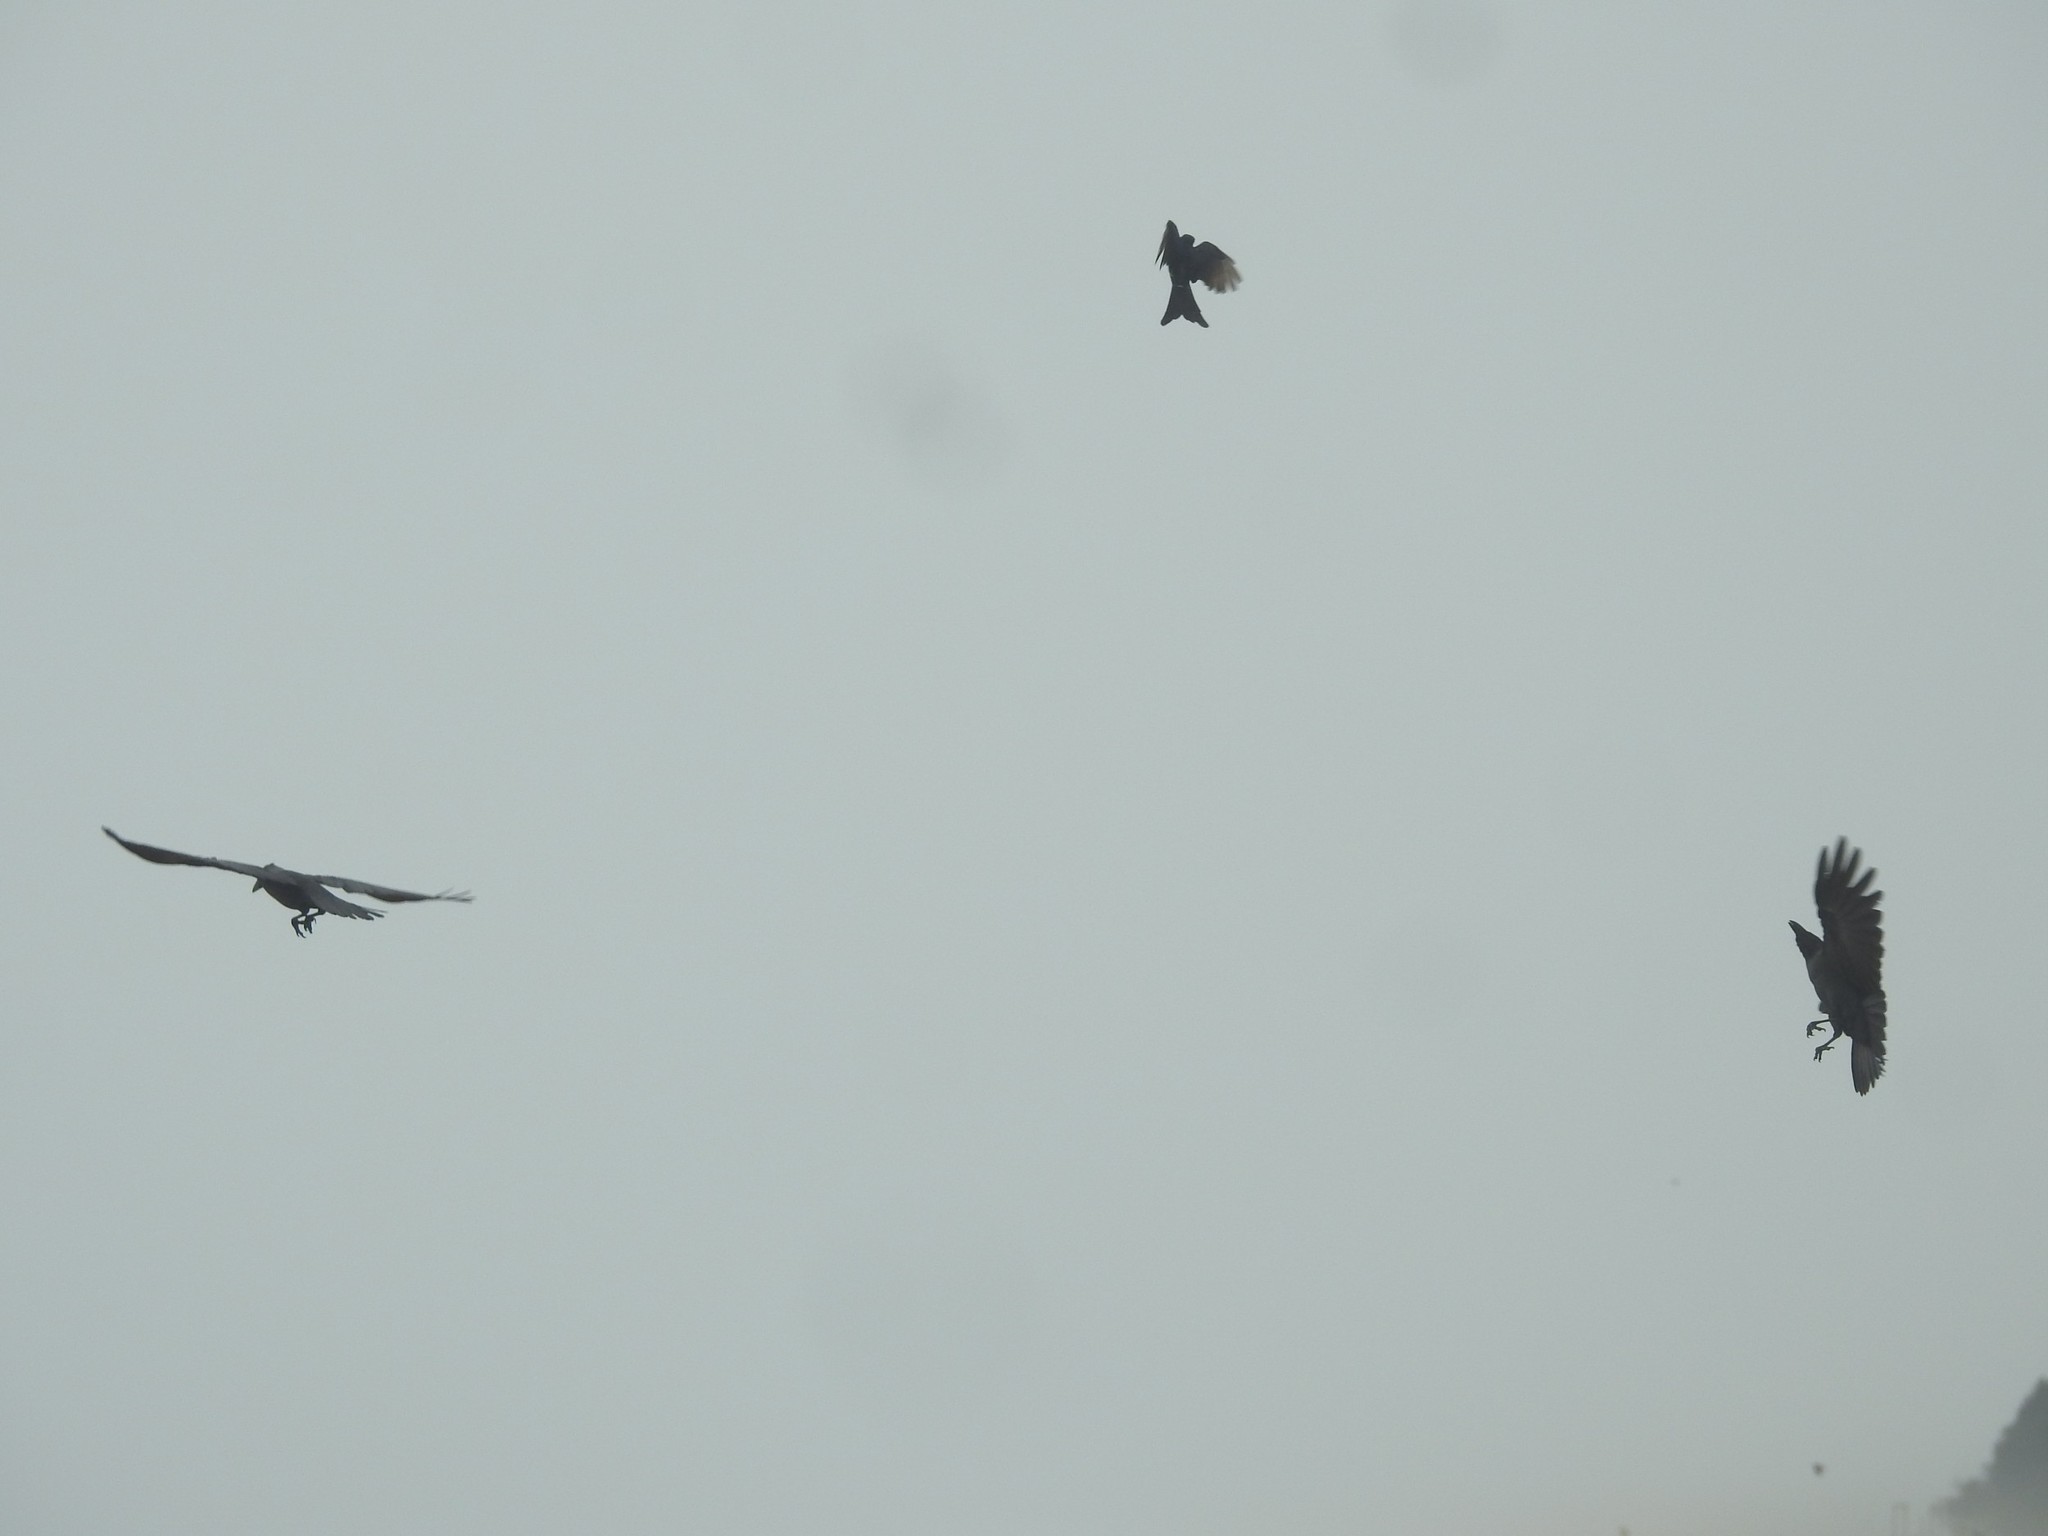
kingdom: Animalia
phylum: Chordata
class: Aves
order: Passeriformes
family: Corvidae
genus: Corvus
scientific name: Corvus splendens
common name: House crow
